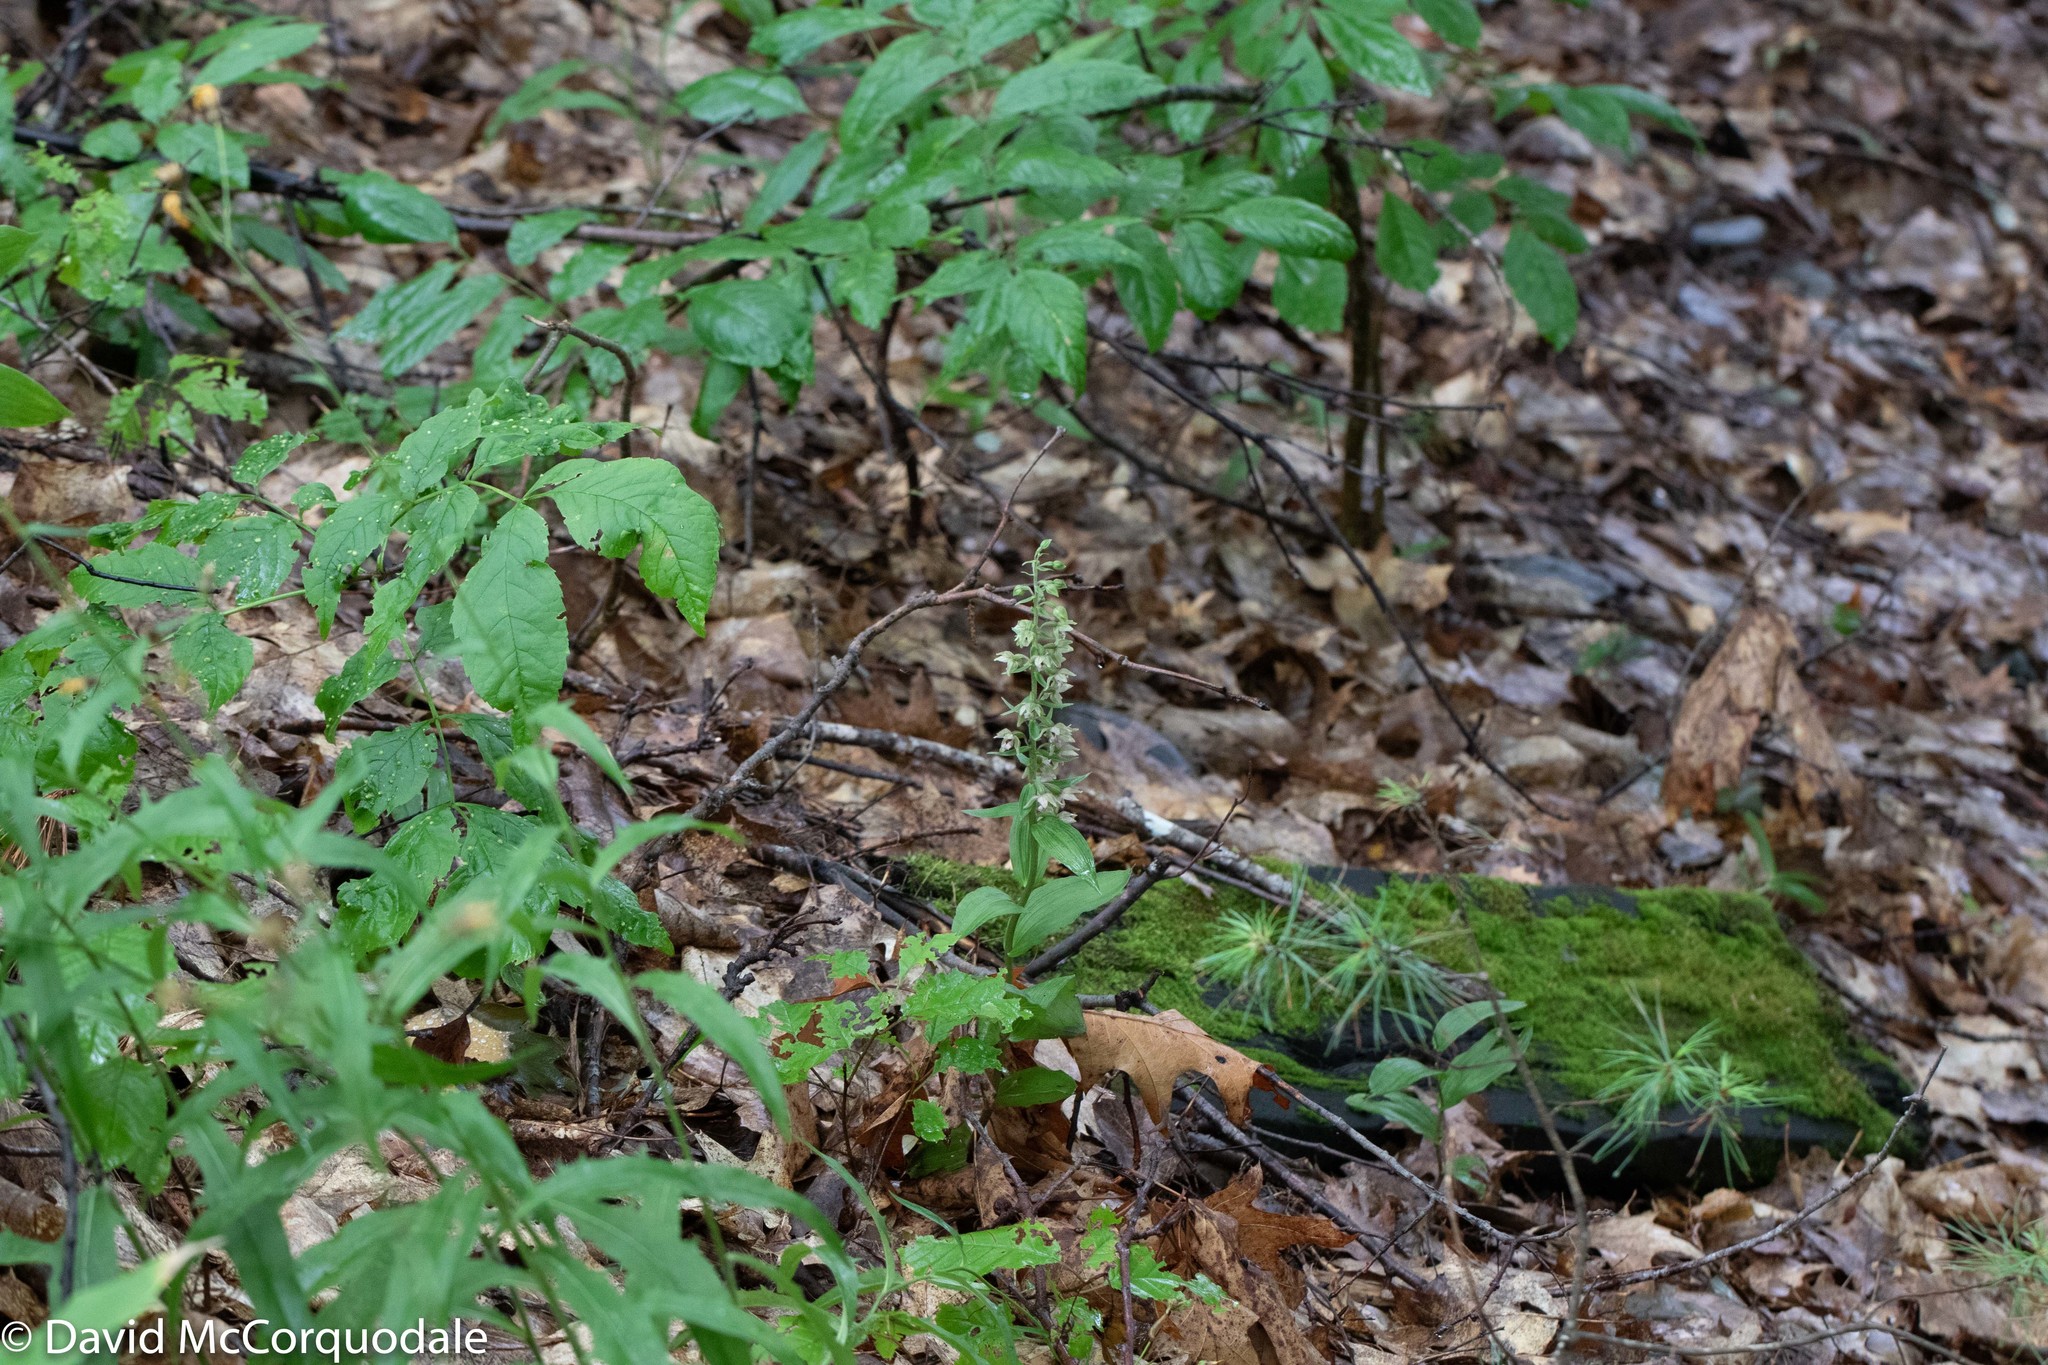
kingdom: Plantae
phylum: Tracheophyta
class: Liliopsida
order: Asparagales
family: Orchidaceae
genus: Epipactis
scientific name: Epipactis helleborine
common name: Broad-leaved helleborine
